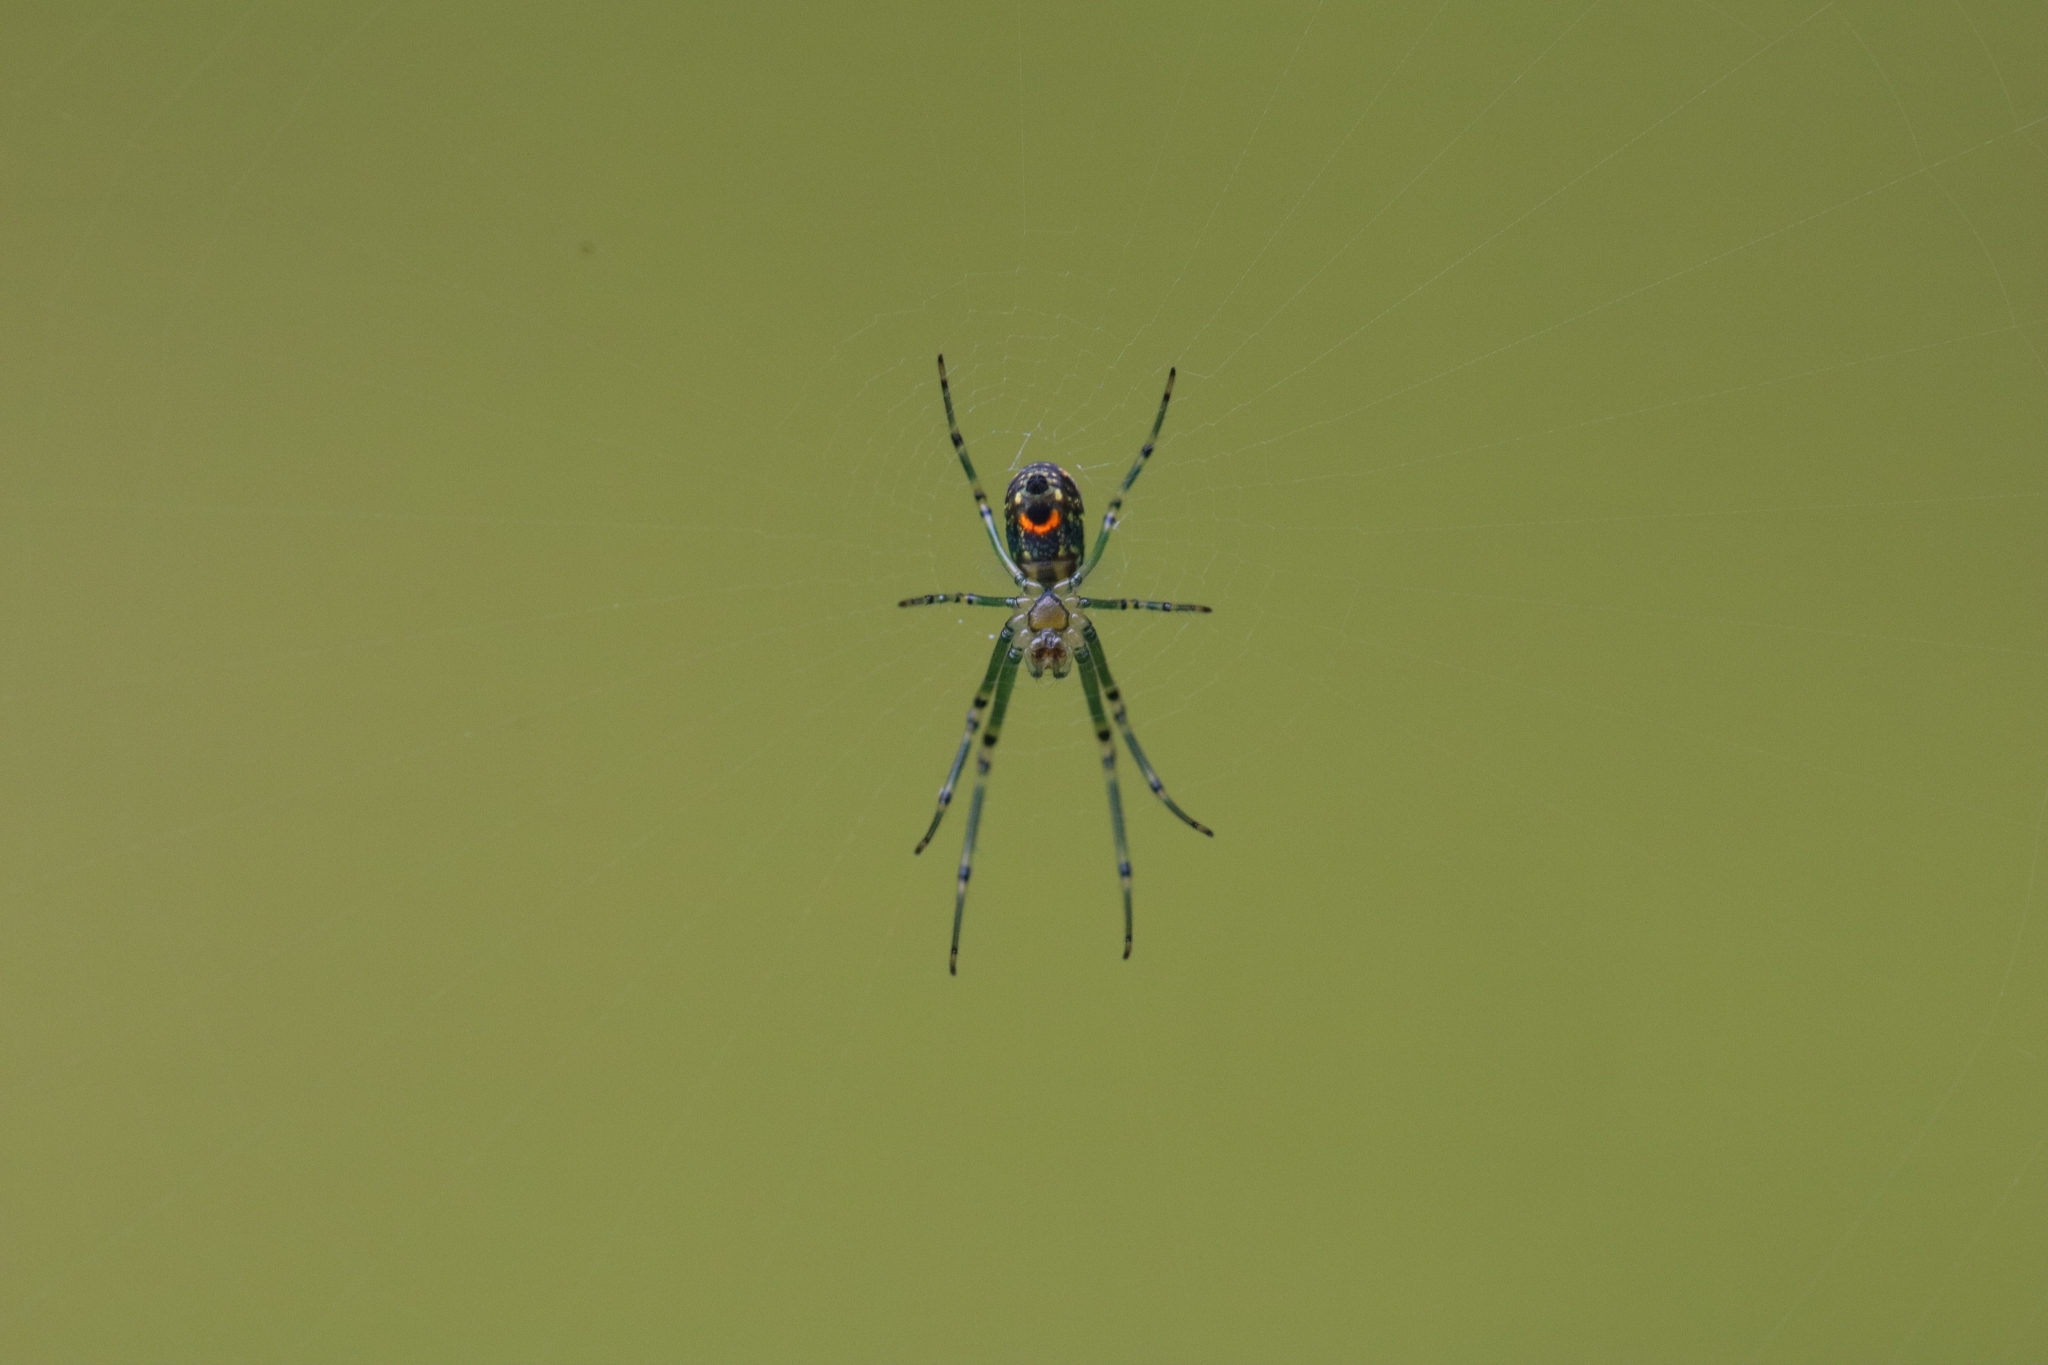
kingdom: Animalia
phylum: Arthropoda
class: Arachnida
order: Araneae
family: Tetragnathidae
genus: Leucauge
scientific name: Leucauge venusta
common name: Longjawed orb weavers
